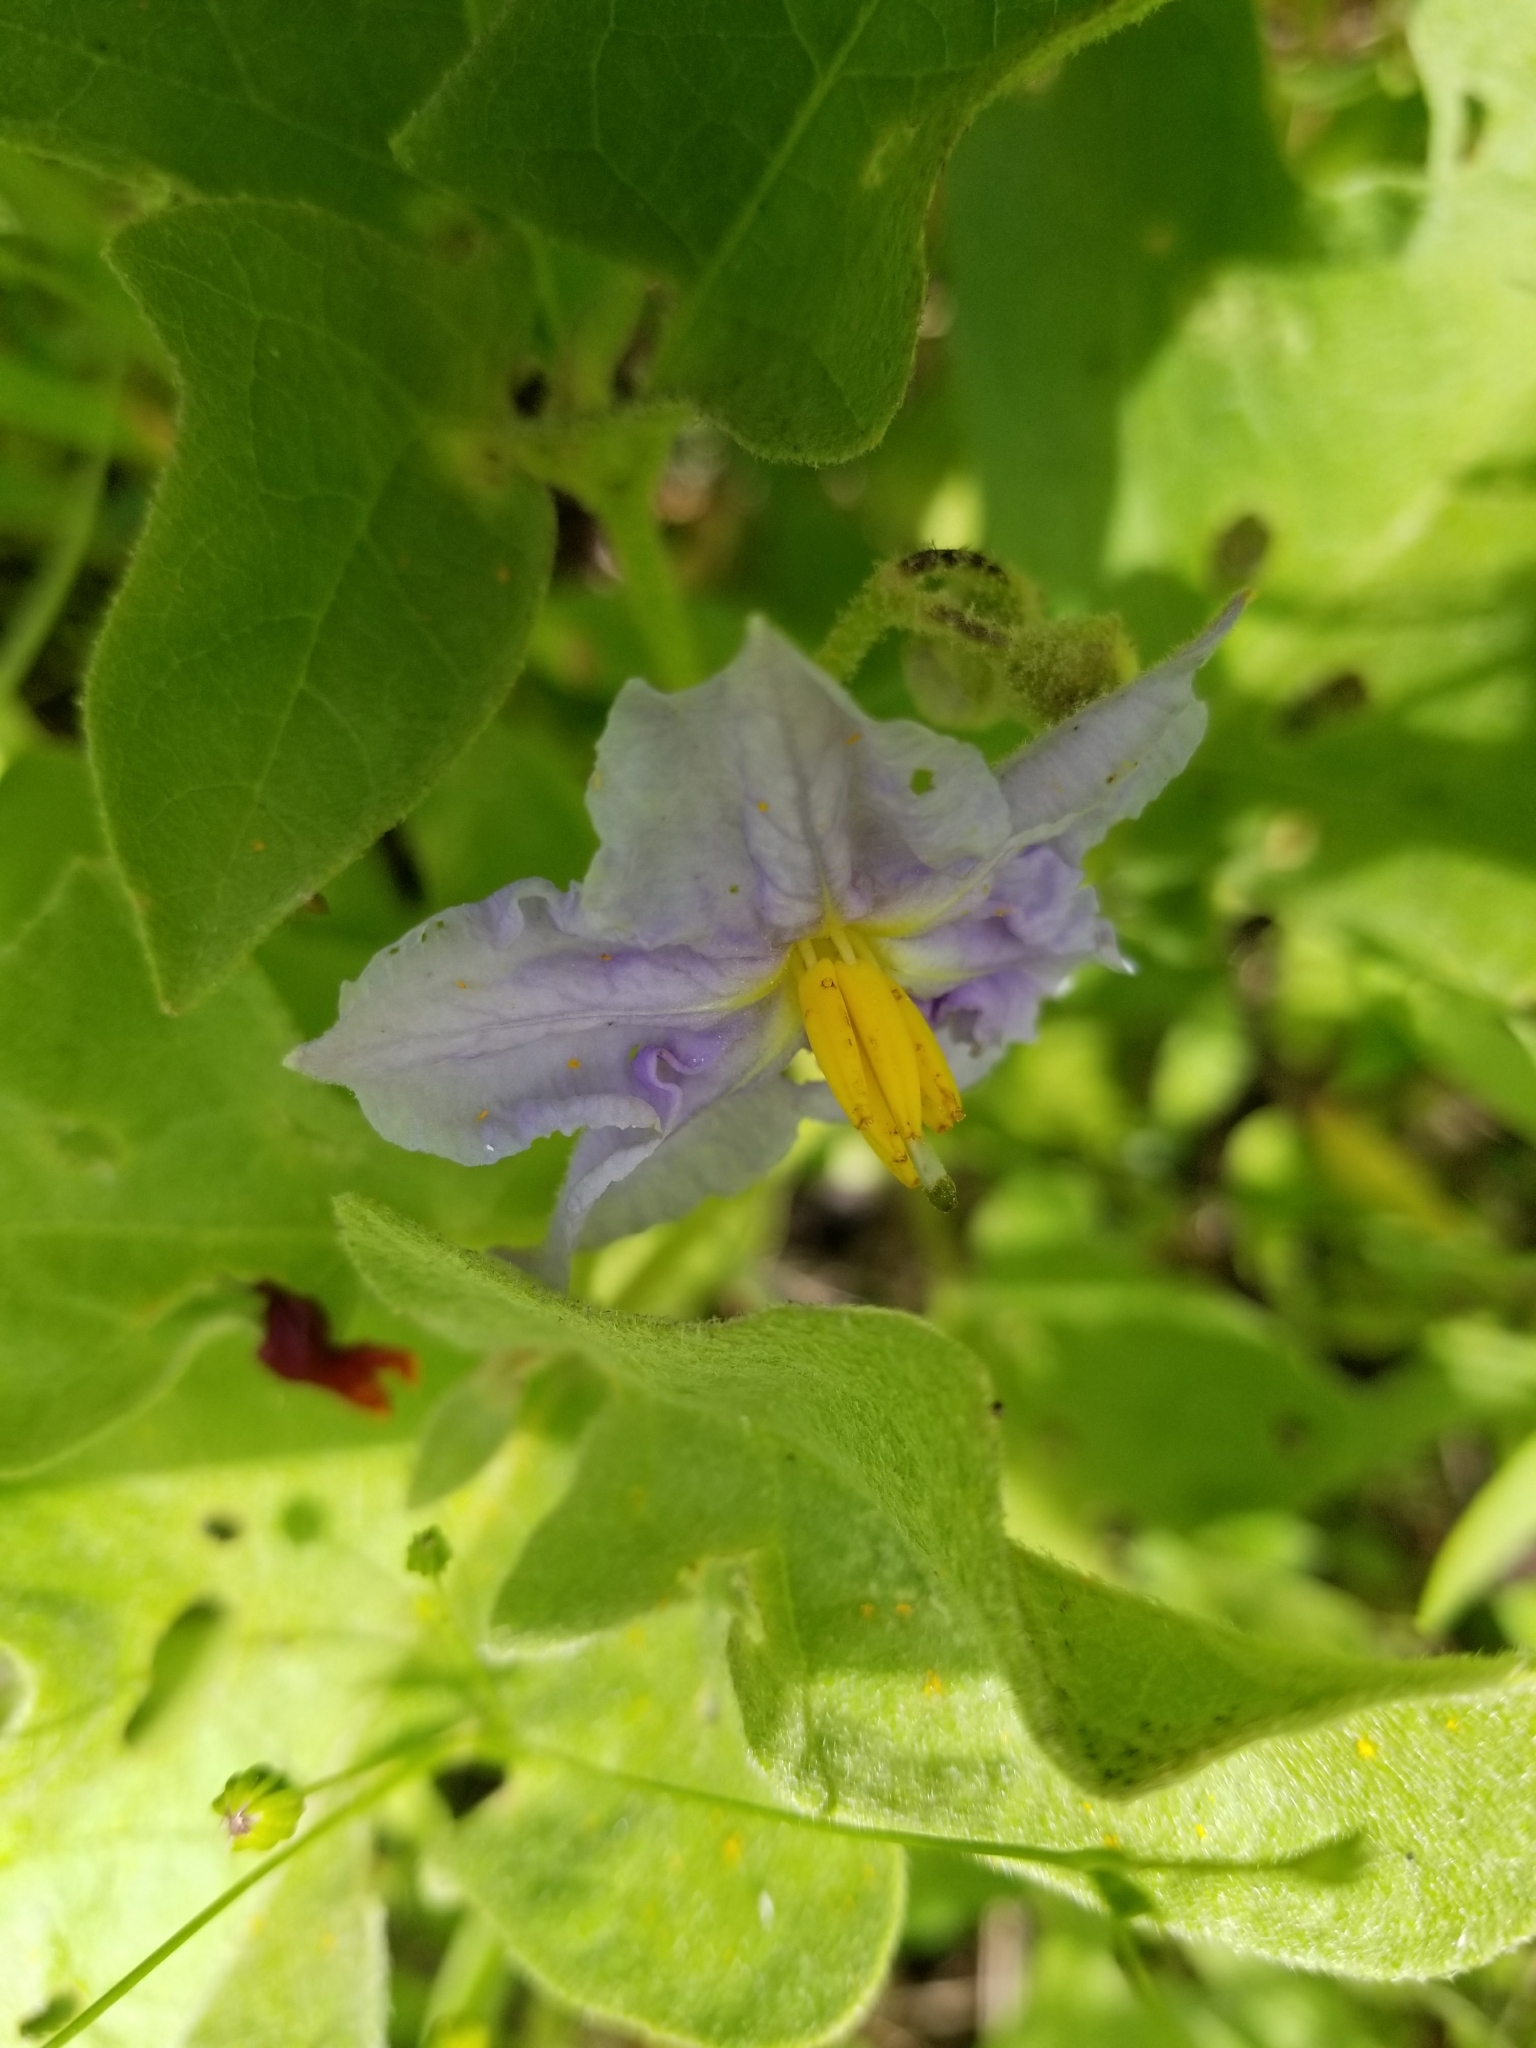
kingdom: Plantae
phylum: Tracheophyta
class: Magnoliopsida
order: Solanales
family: Solanaceae
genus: Solanum
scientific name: Solanum dimidiatum
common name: Carolina horse-nettle
